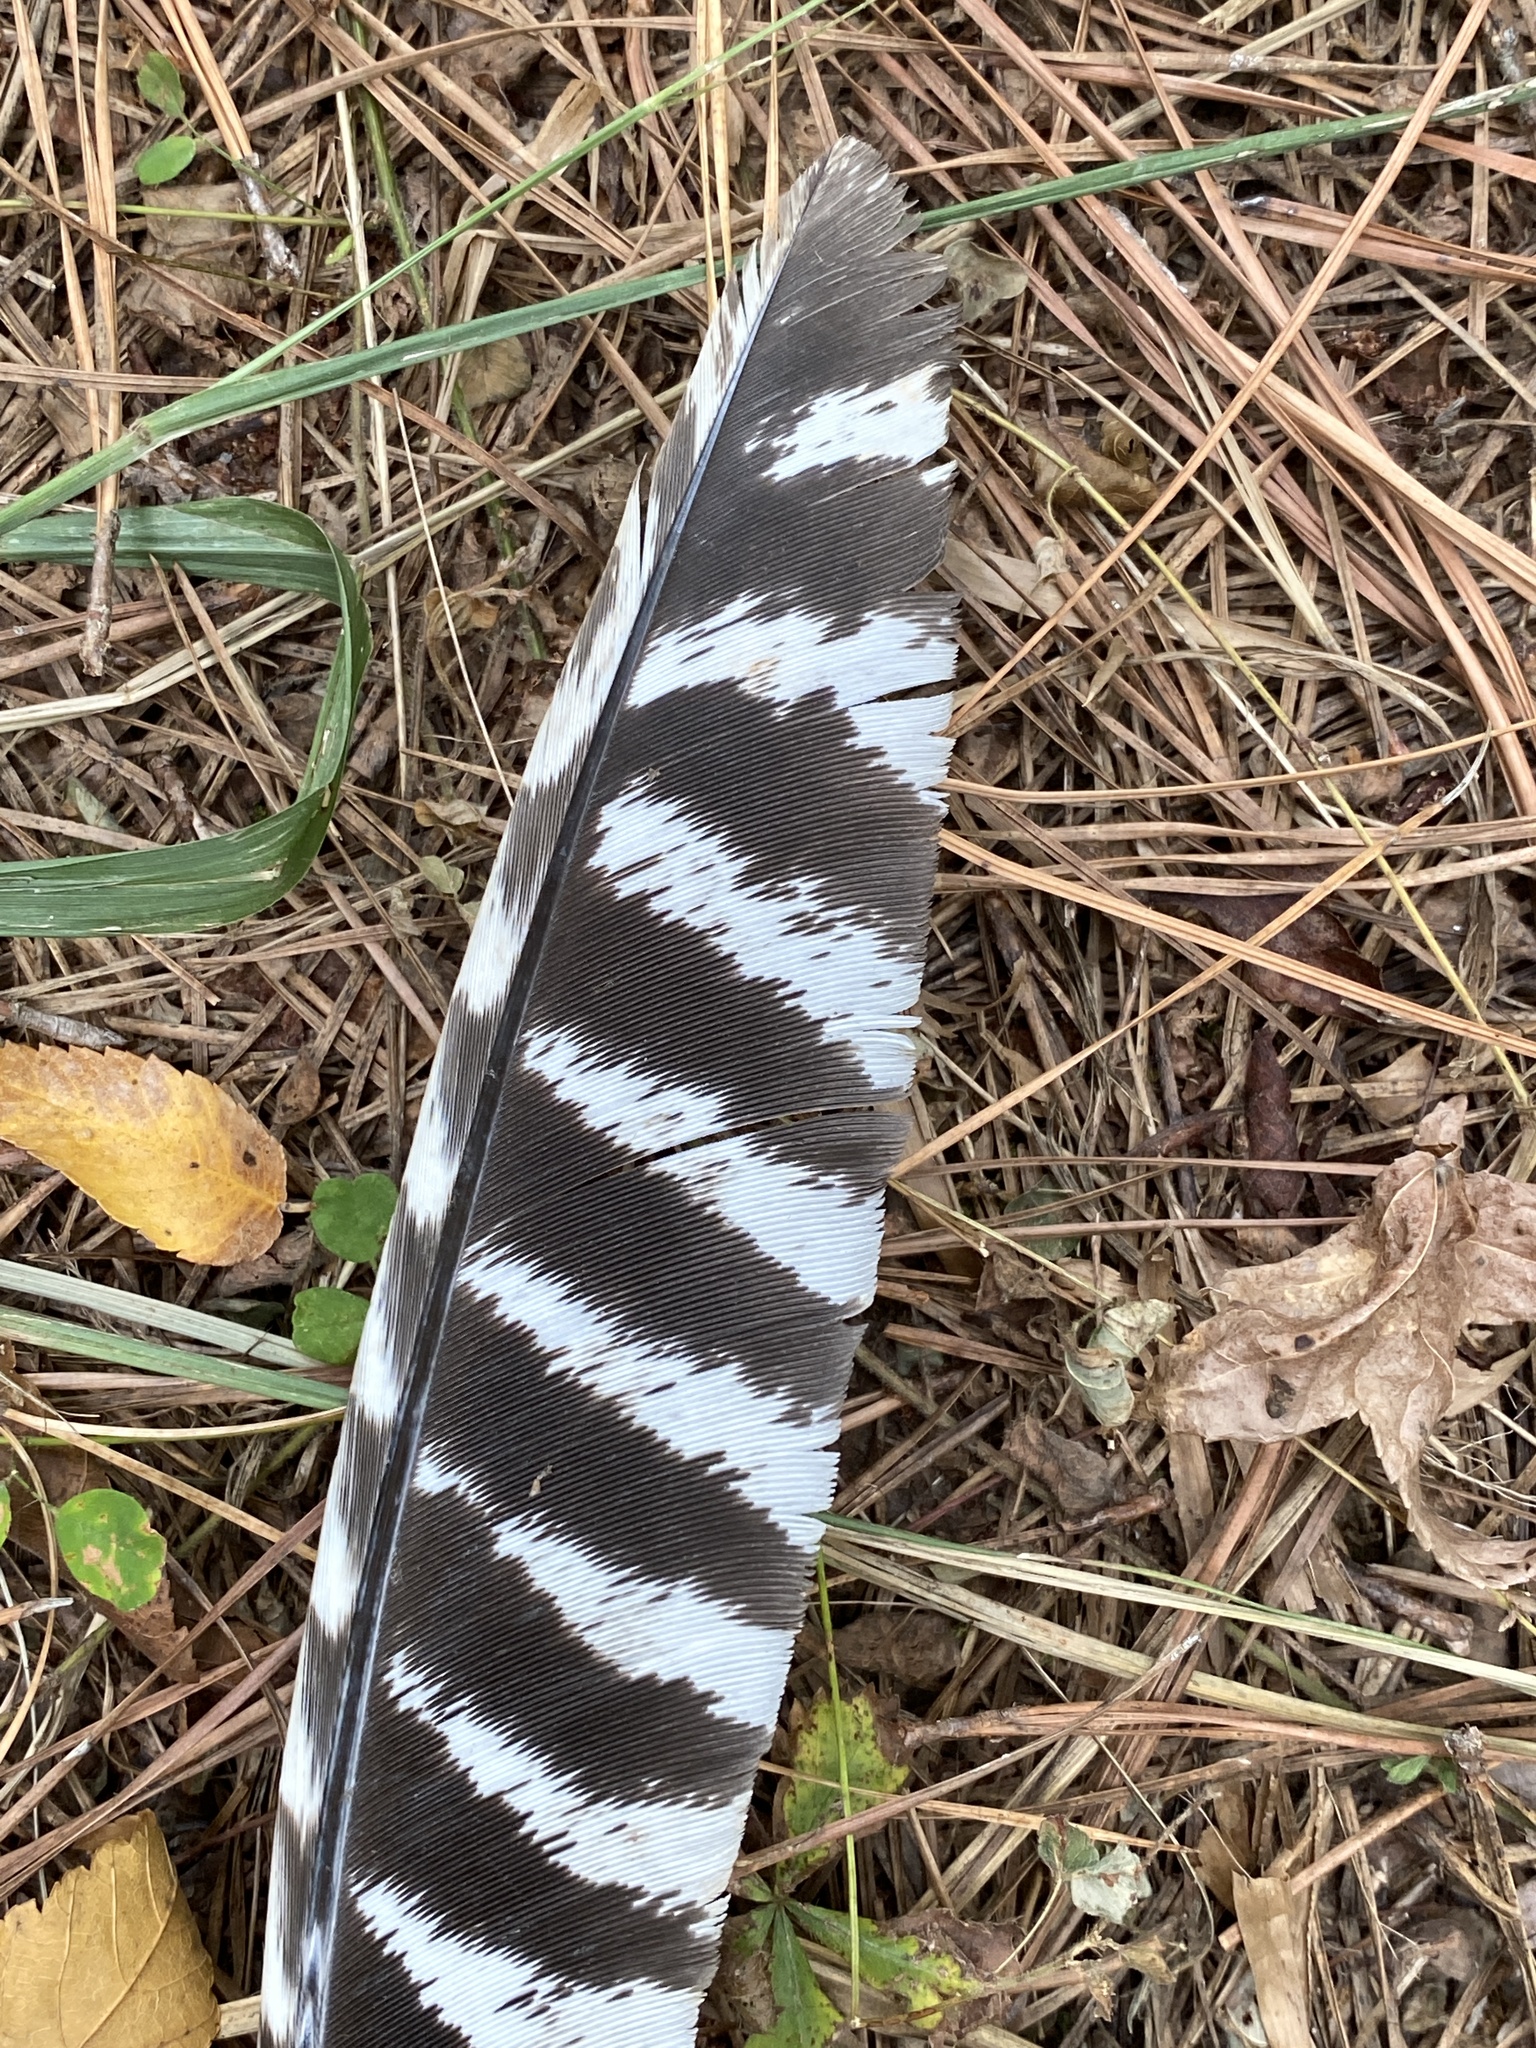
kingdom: Animalia
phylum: Chordata
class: Aves
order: Galliformes
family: Phasianidae
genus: Meleagris
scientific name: Meleagris gallopavo
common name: Wild turkey
